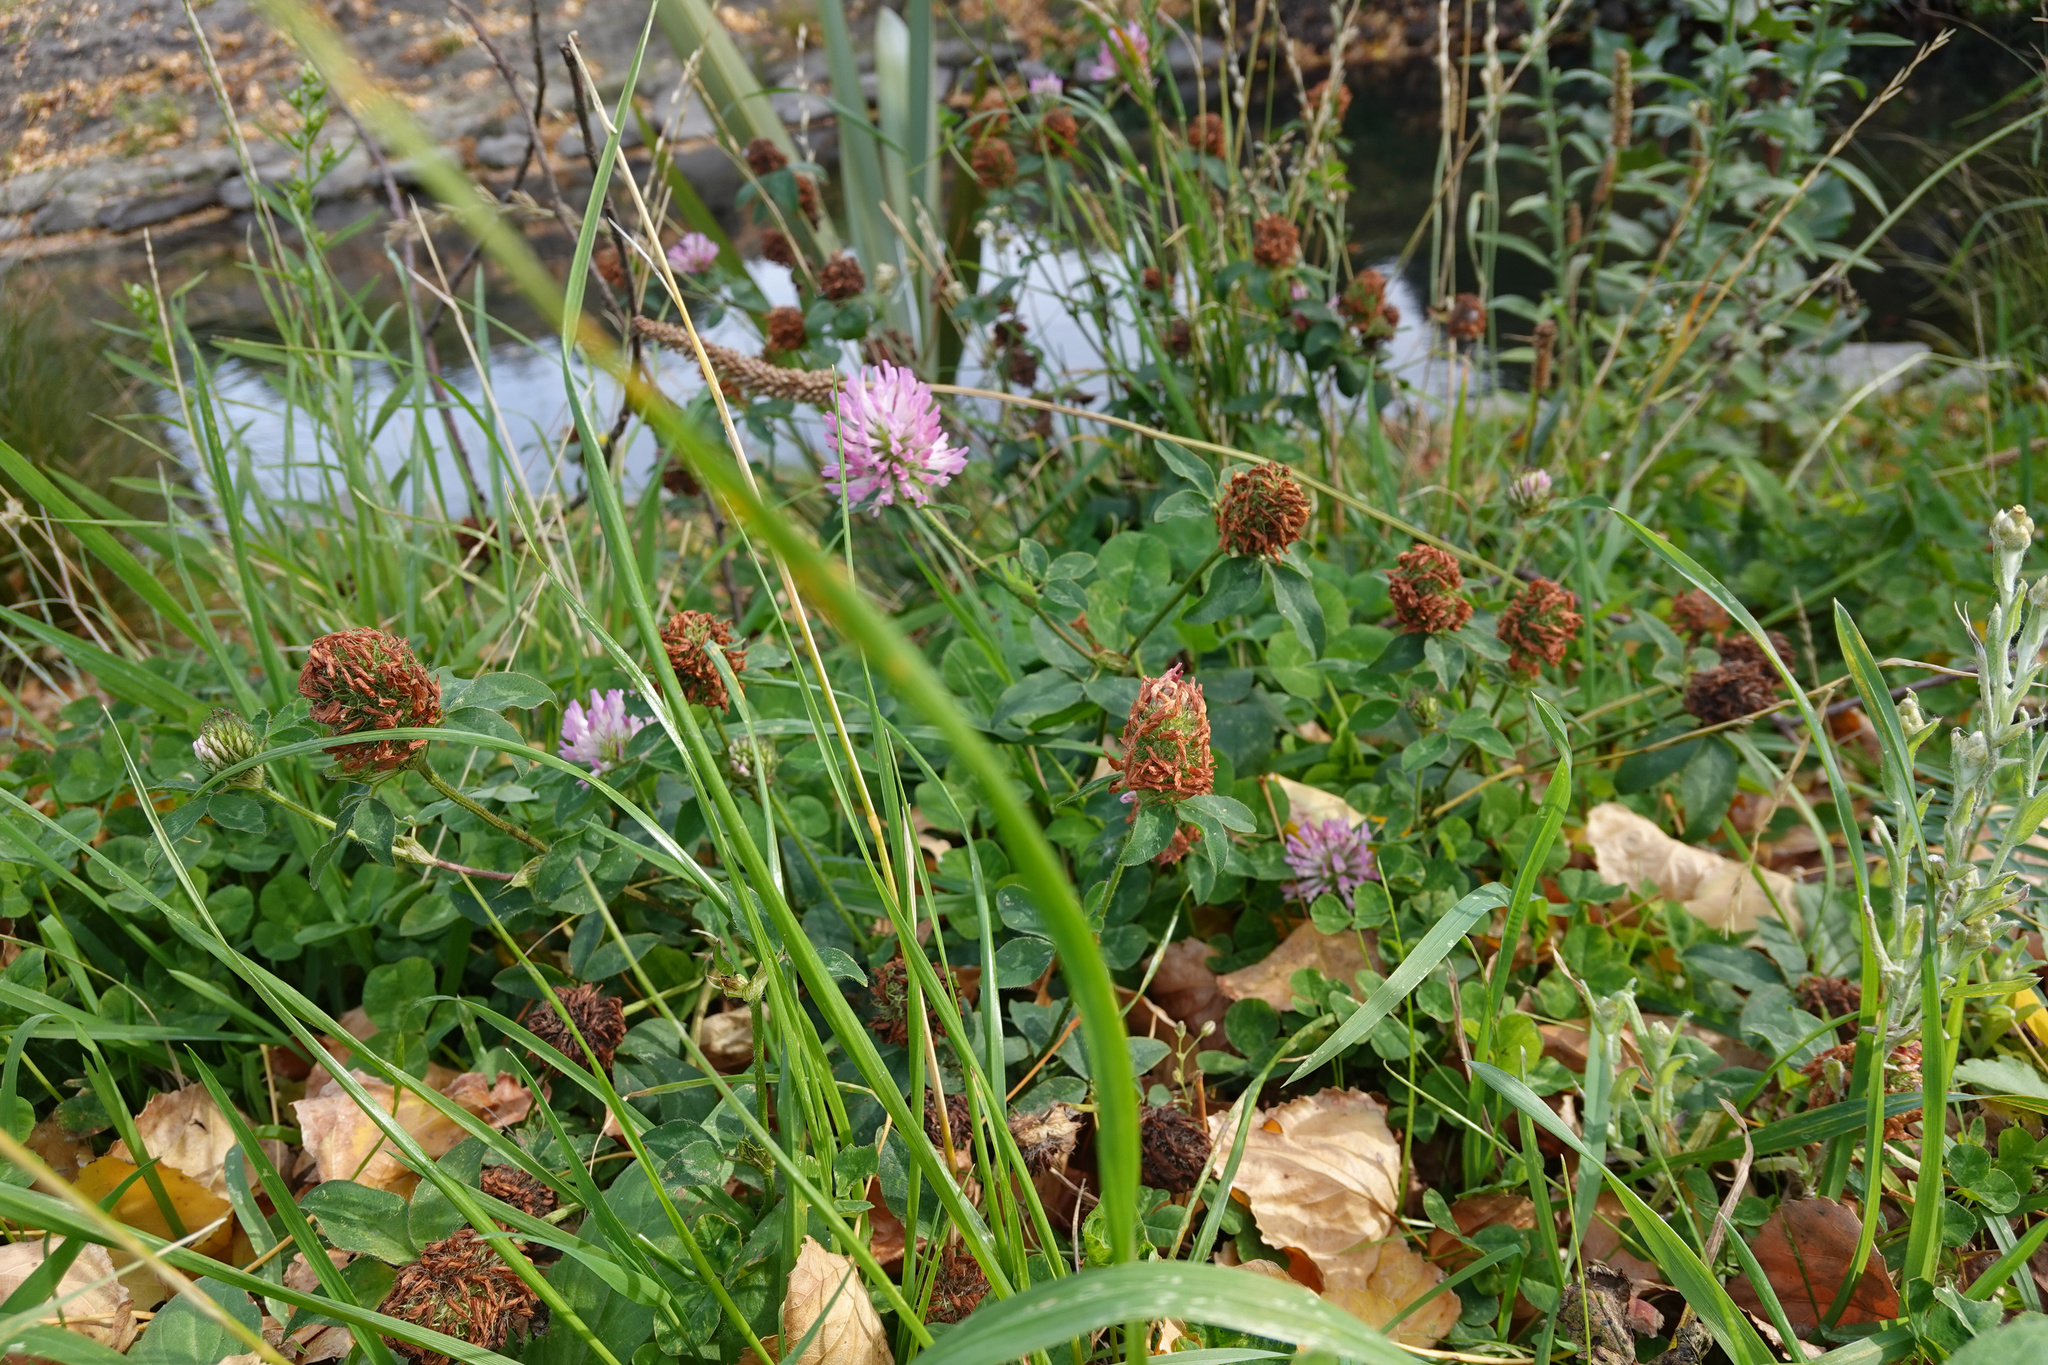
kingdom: Plantae
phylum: Tracheophyta
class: Magnoliopsida
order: Fabales
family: Fabaceae
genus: Trifolium
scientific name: Trifolium pratense
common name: Red clover
